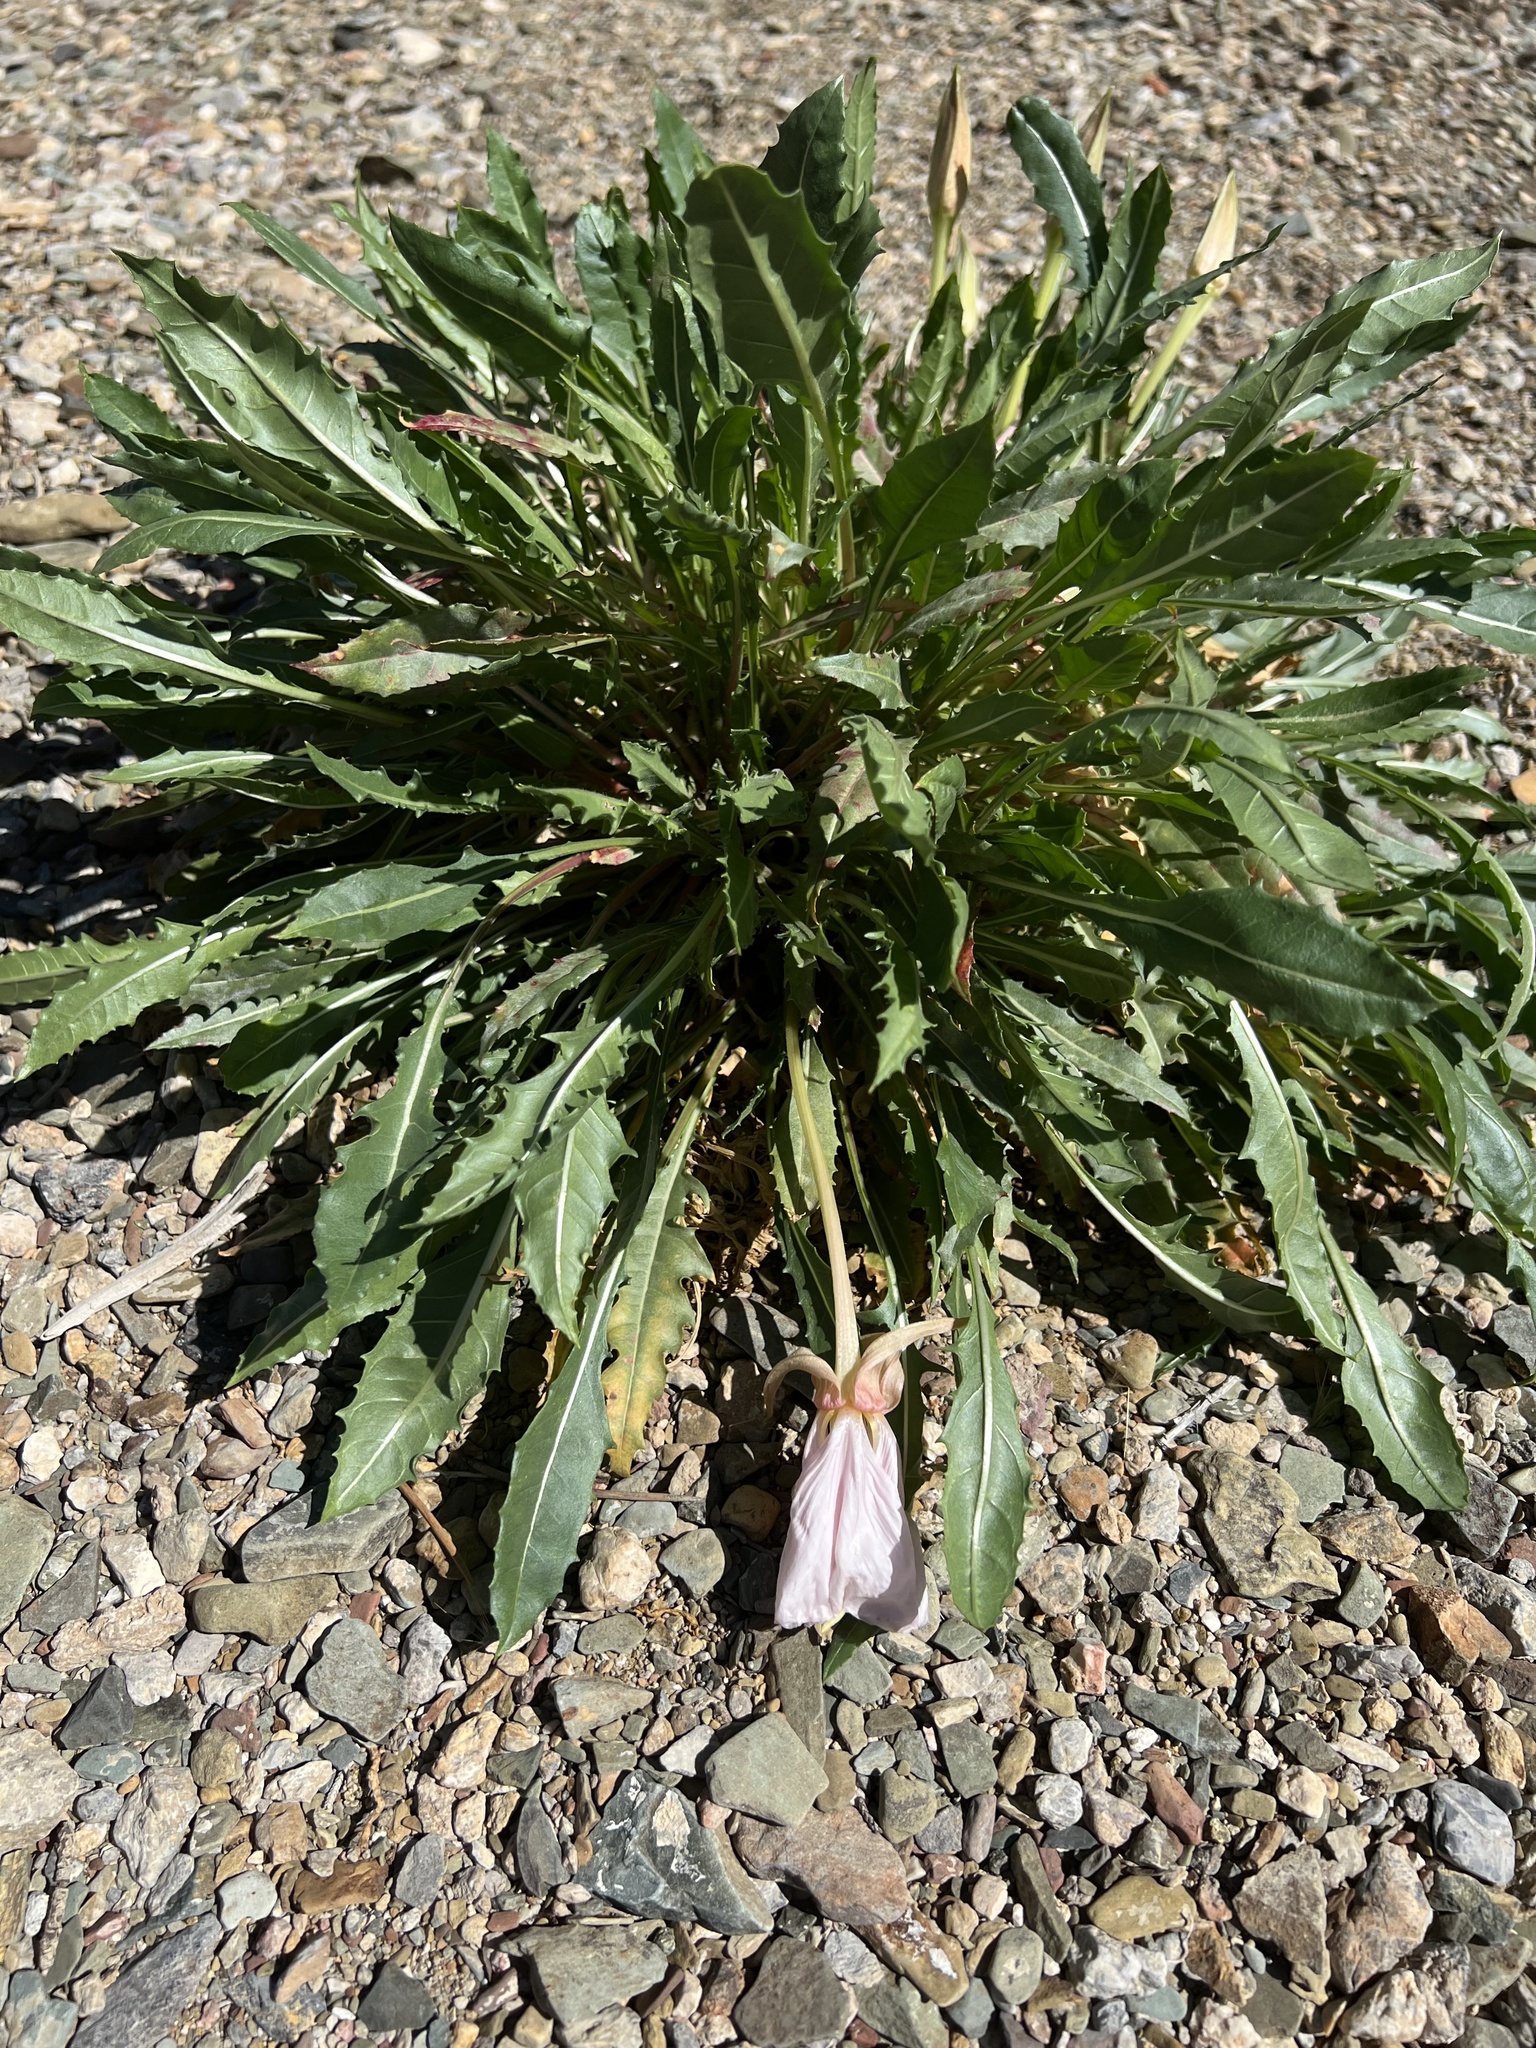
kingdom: Plantae
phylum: Tracheophyta
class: Magnoliopsida
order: Myrtales
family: Onagraceae
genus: Oenothera
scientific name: Oenothera cespitosa
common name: Tufted evening-primrose
